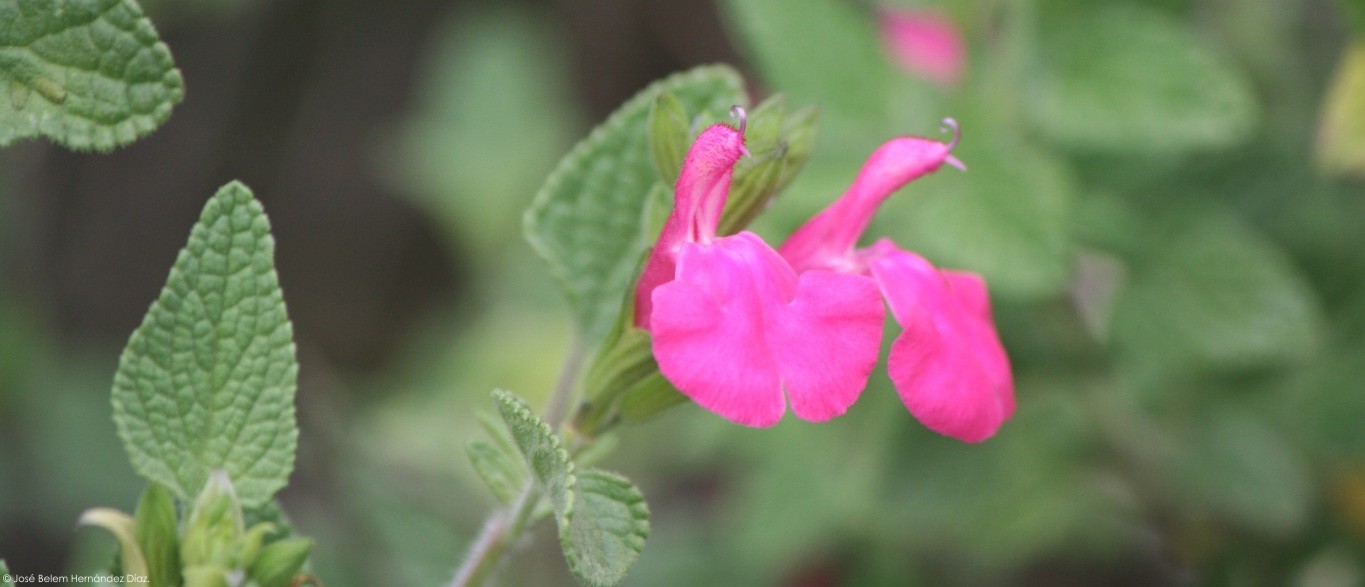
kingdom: Plantae
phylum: Tracheophyta
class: Magnoliopsida
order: Lamiales
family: Lamiaceae
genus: Salvia
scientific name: Salvia microphylla
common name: Baby sage
